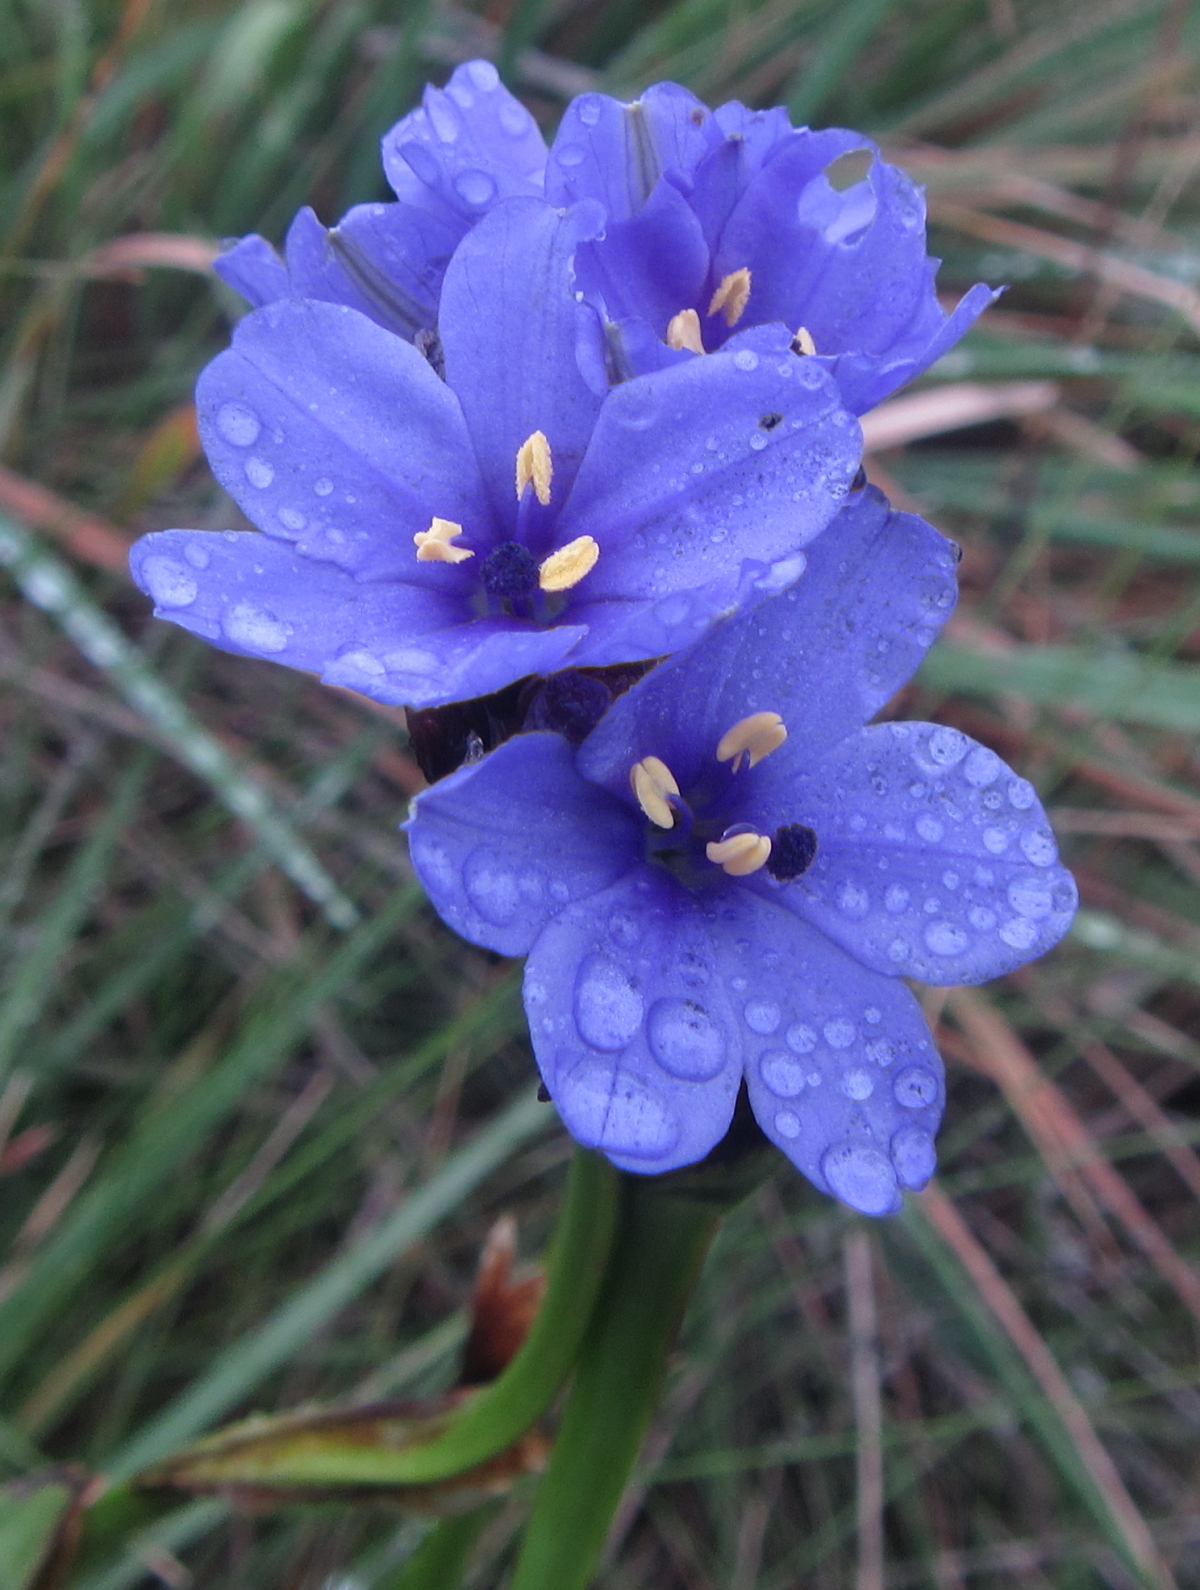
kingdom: Plantae
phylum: Tracheophyta
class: Liliopsida
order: Asparagales
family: Iridaceae
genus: Aristea
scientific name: Aristea torulosa
